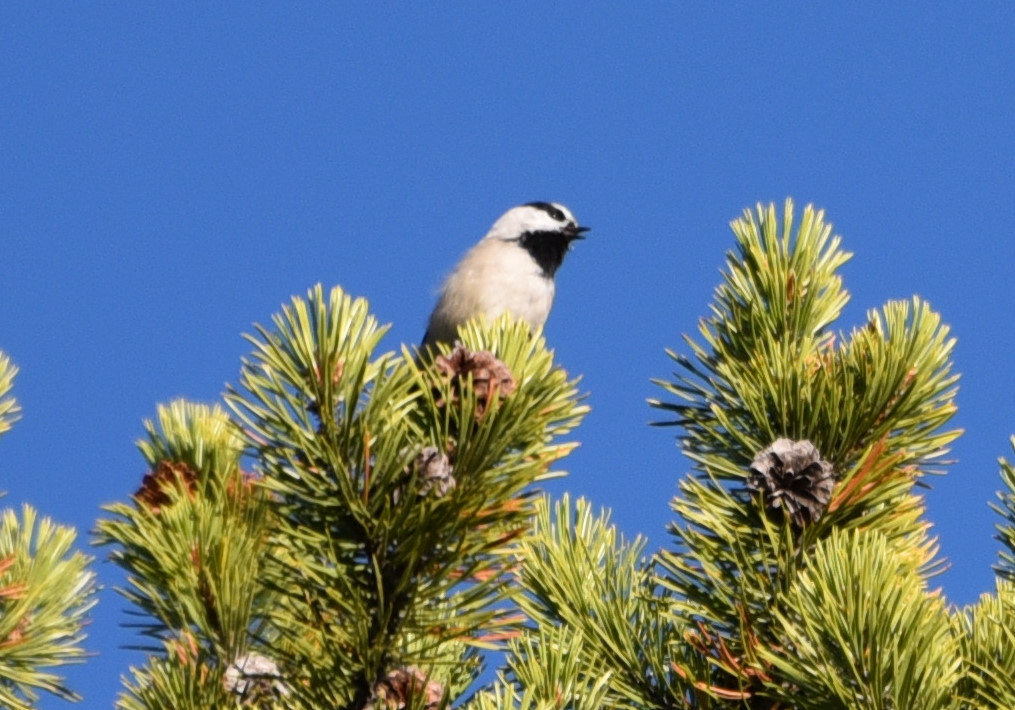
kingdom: Animalia
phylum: Chordata
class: Aves
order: Passeriformes
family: Paridae
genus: Poecile
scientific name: Poecile gambeli
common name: Mountain chickadee
